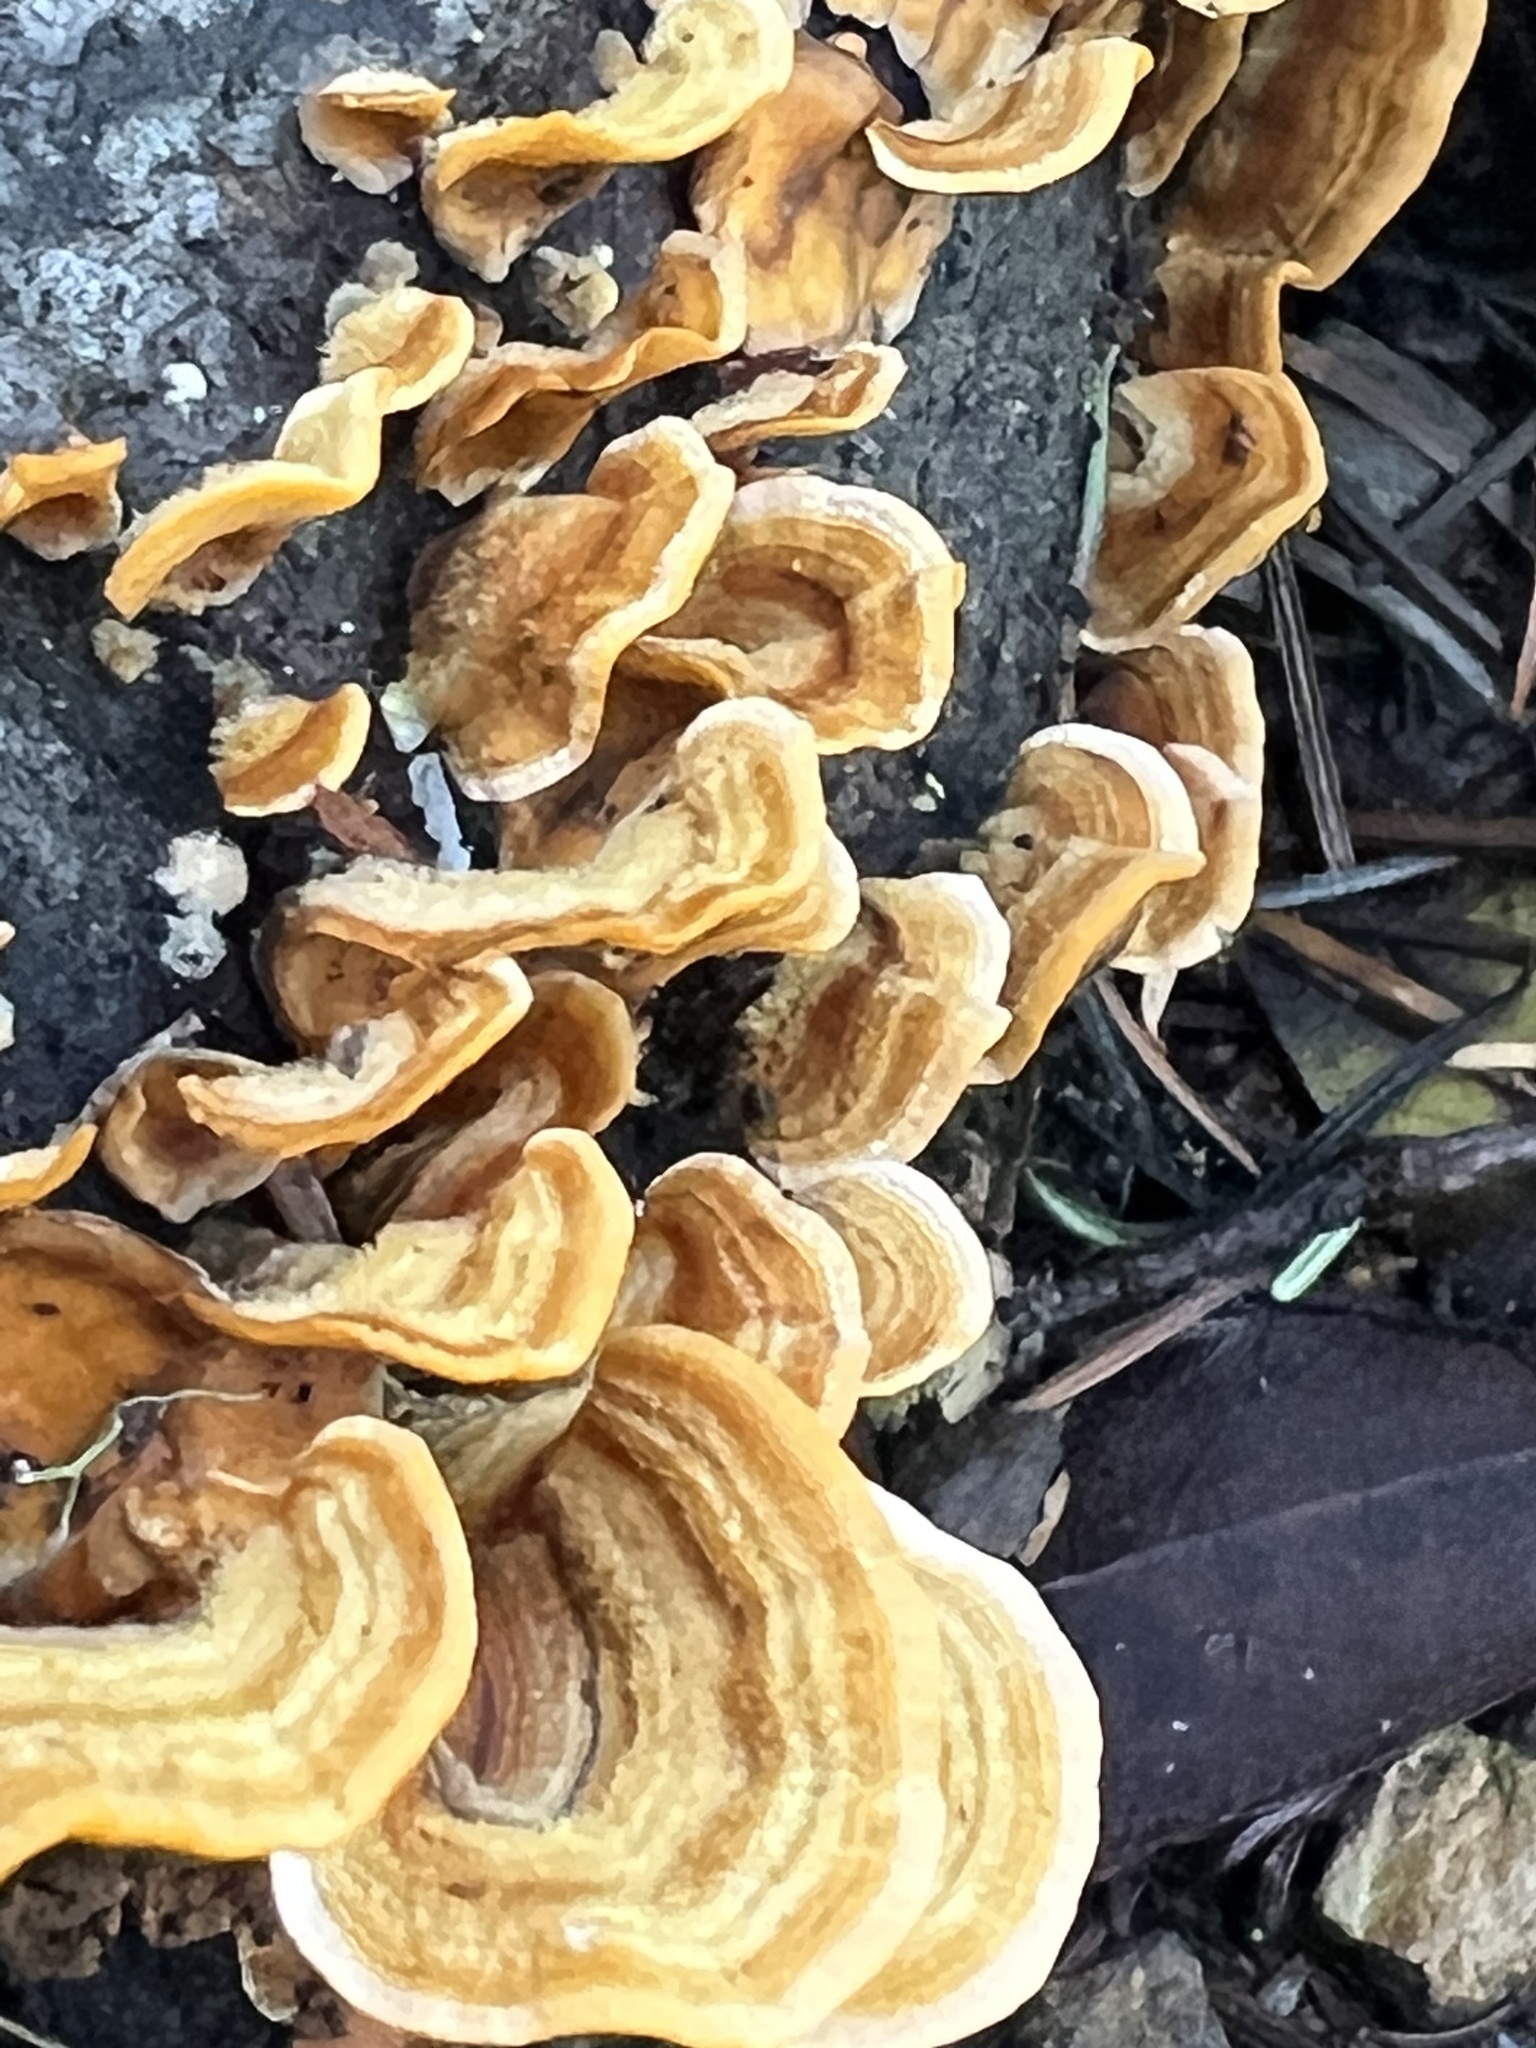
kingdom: Fungi
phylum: Basidiomycota
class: Agaricomycetes
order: Russulales
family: Stereaceae
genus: Stereum
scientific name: Stereum hirsutum
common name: Hairy curtain crust
